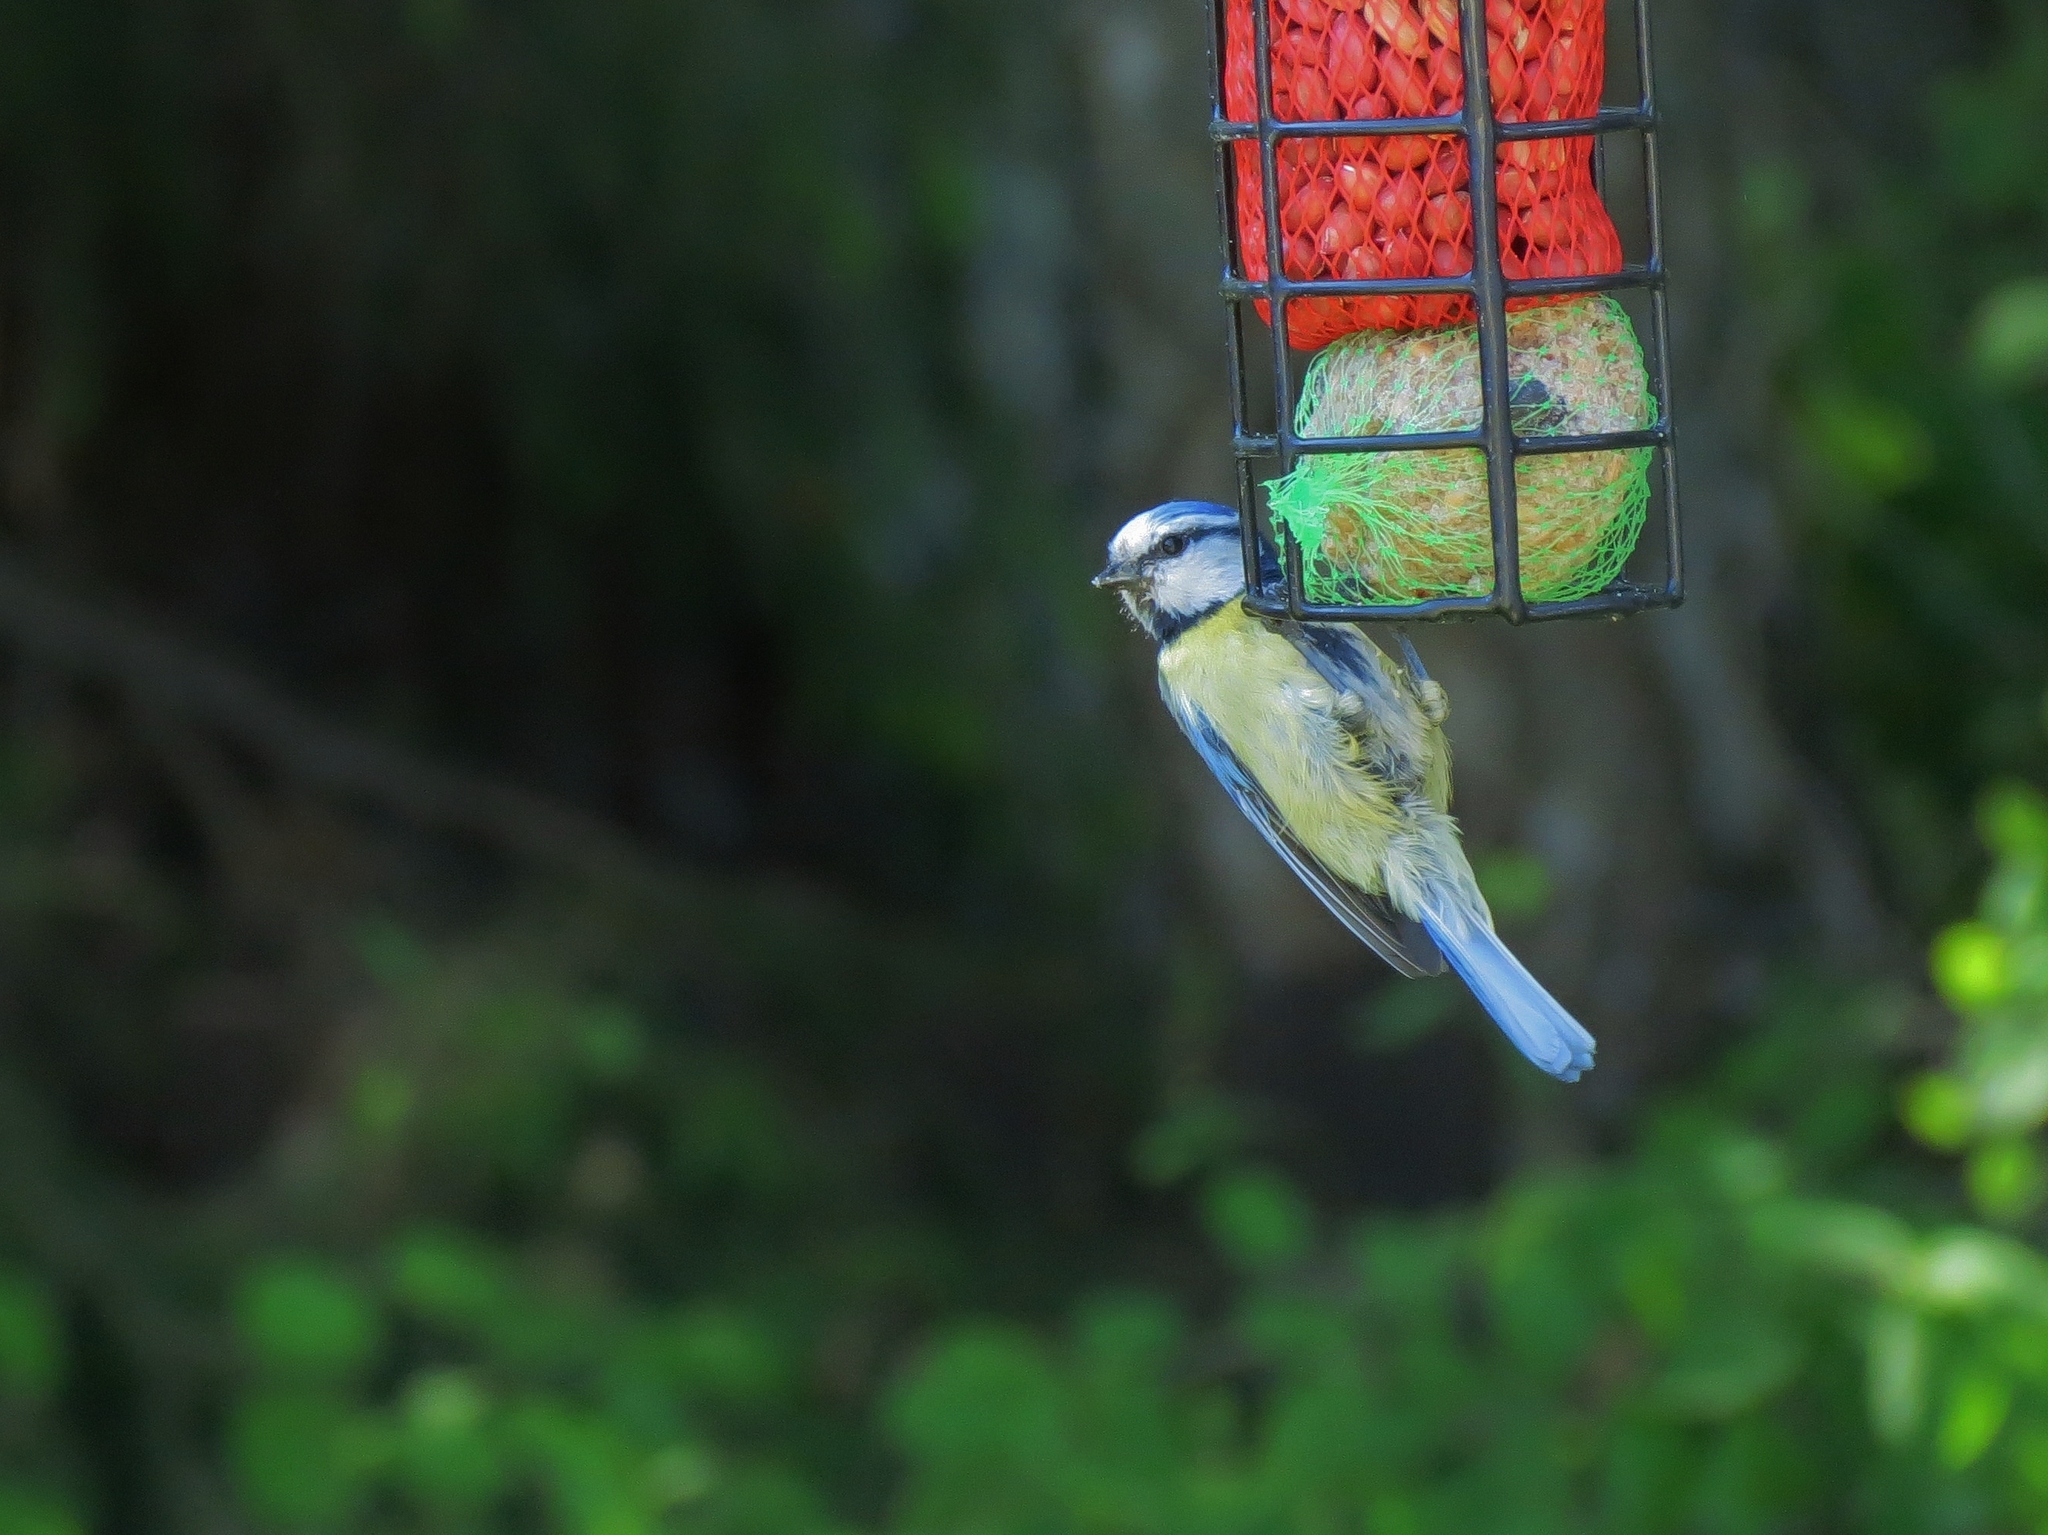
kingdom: Animalia
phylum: Chordata
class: Aves
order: Passeriformes
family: Paridae
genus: Cyanistes
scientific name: Cyanistes caeruleus
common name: Eurasian blue tit
